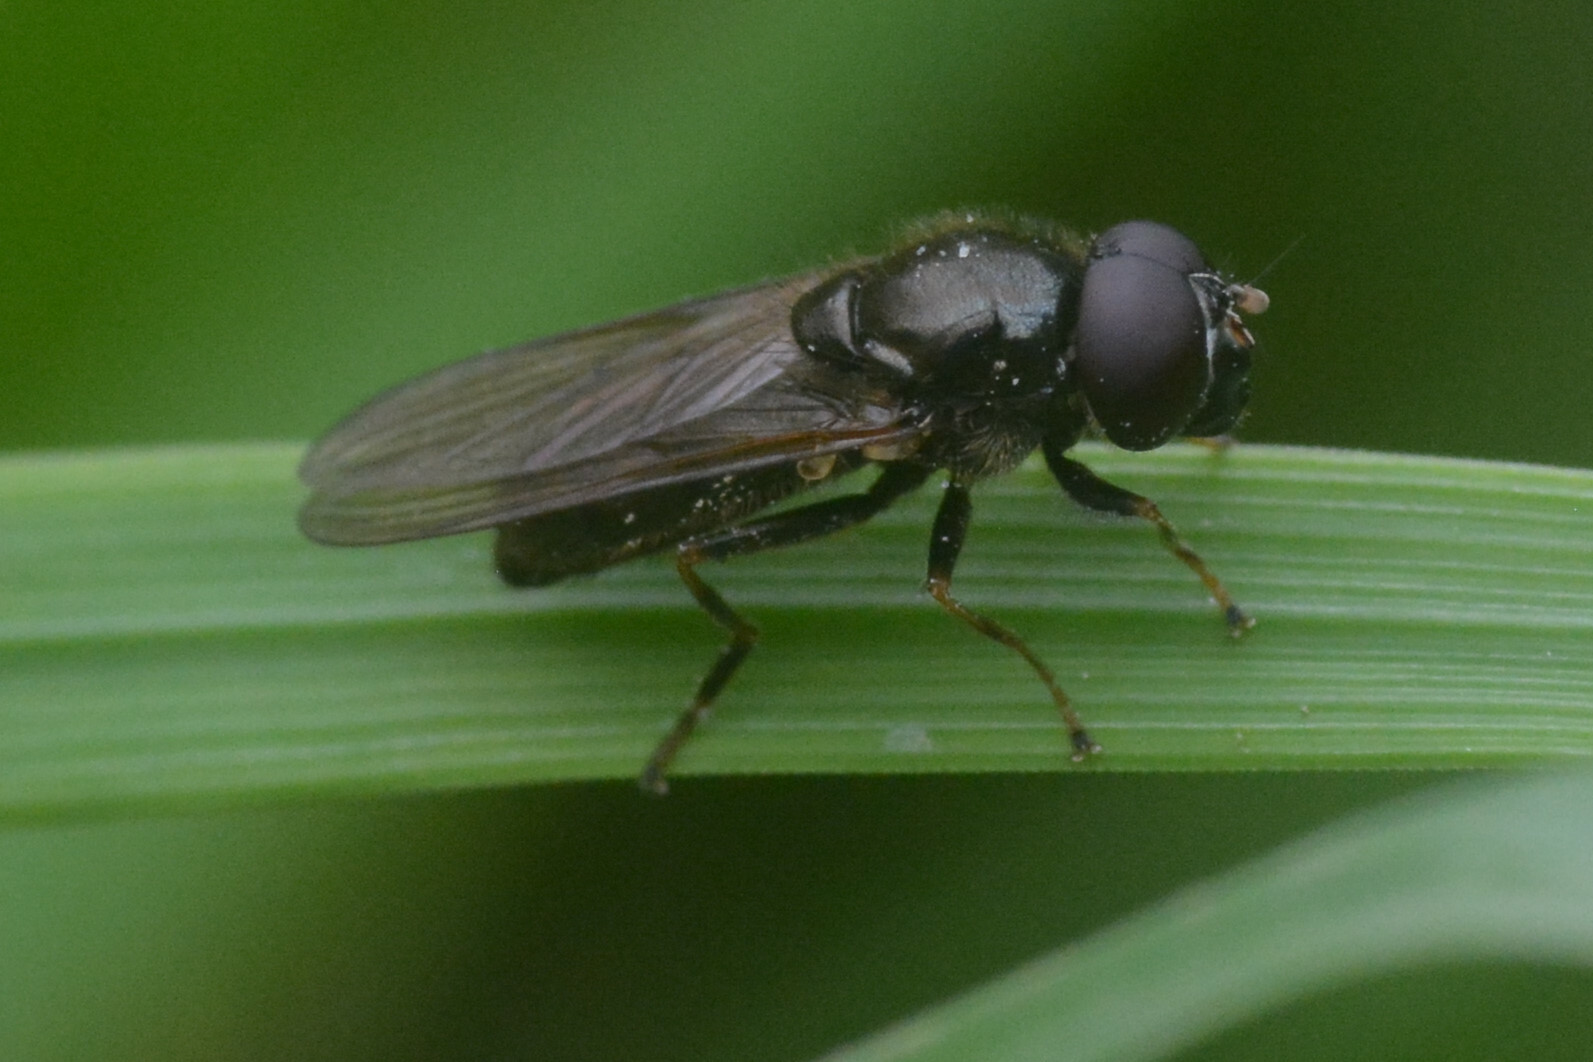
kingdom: Animalia
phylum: Arthropoda
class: Insecta
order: Diptera
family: Syrphidae
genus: Cheilosia
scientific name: Cheilosia pagana
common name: Hover fly
